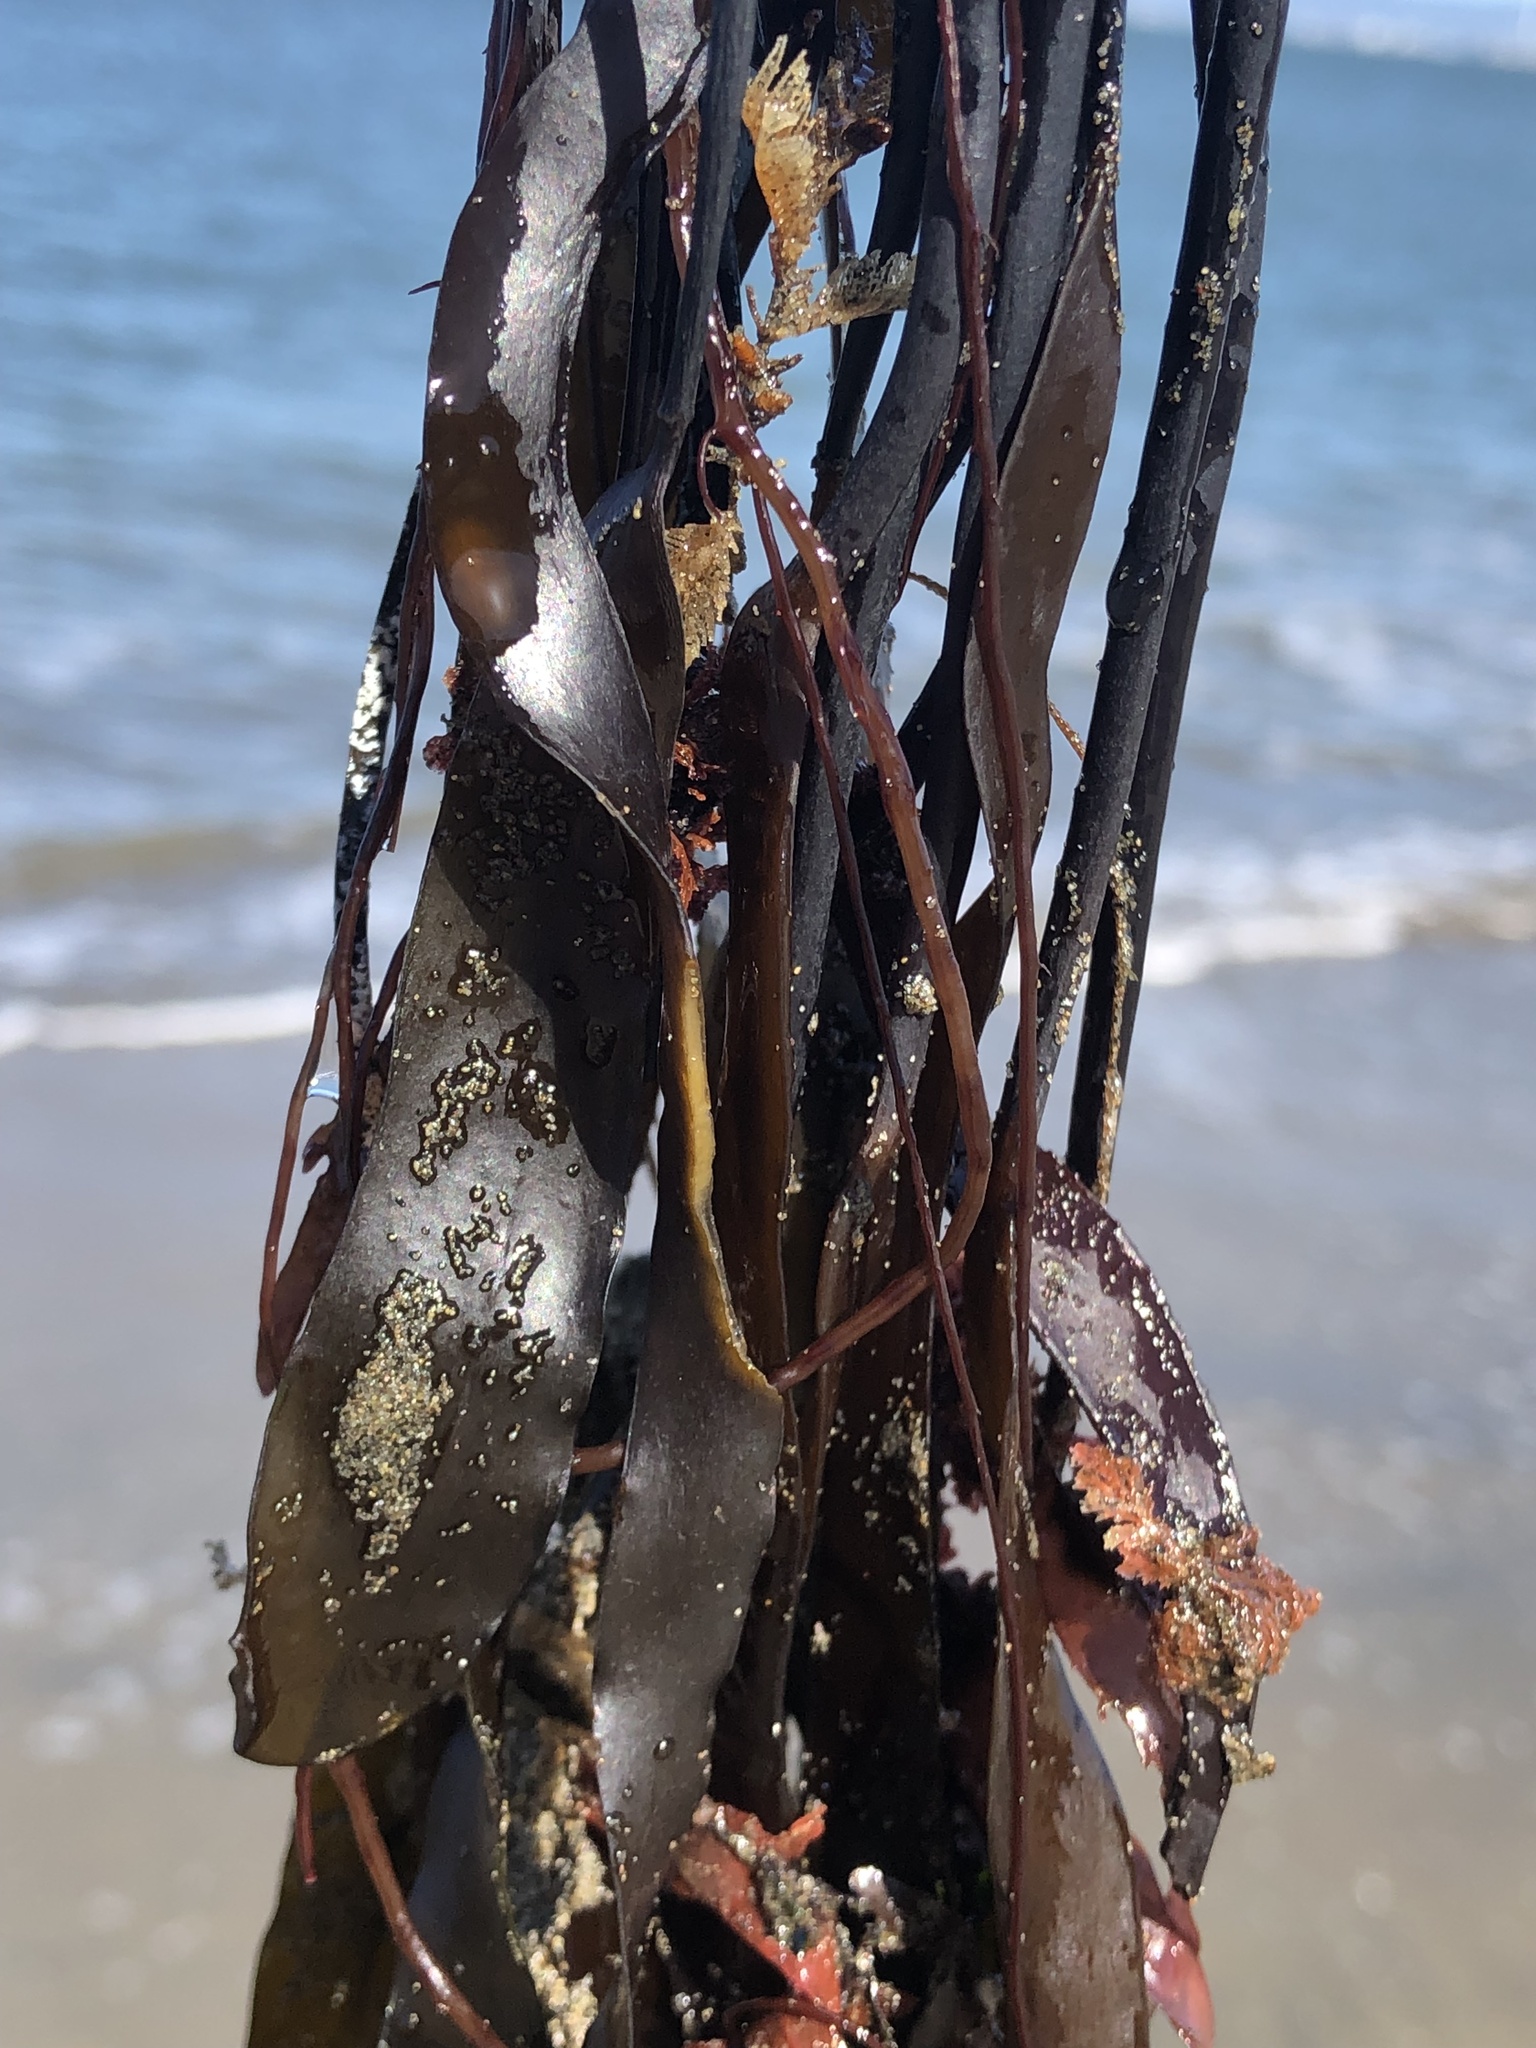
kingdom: Chromista
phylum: Ochrophyta
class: Phaeophyceae
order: Laminariales
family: Laminariaceae
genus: Laminaria
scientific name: Laminaria sinclairii
